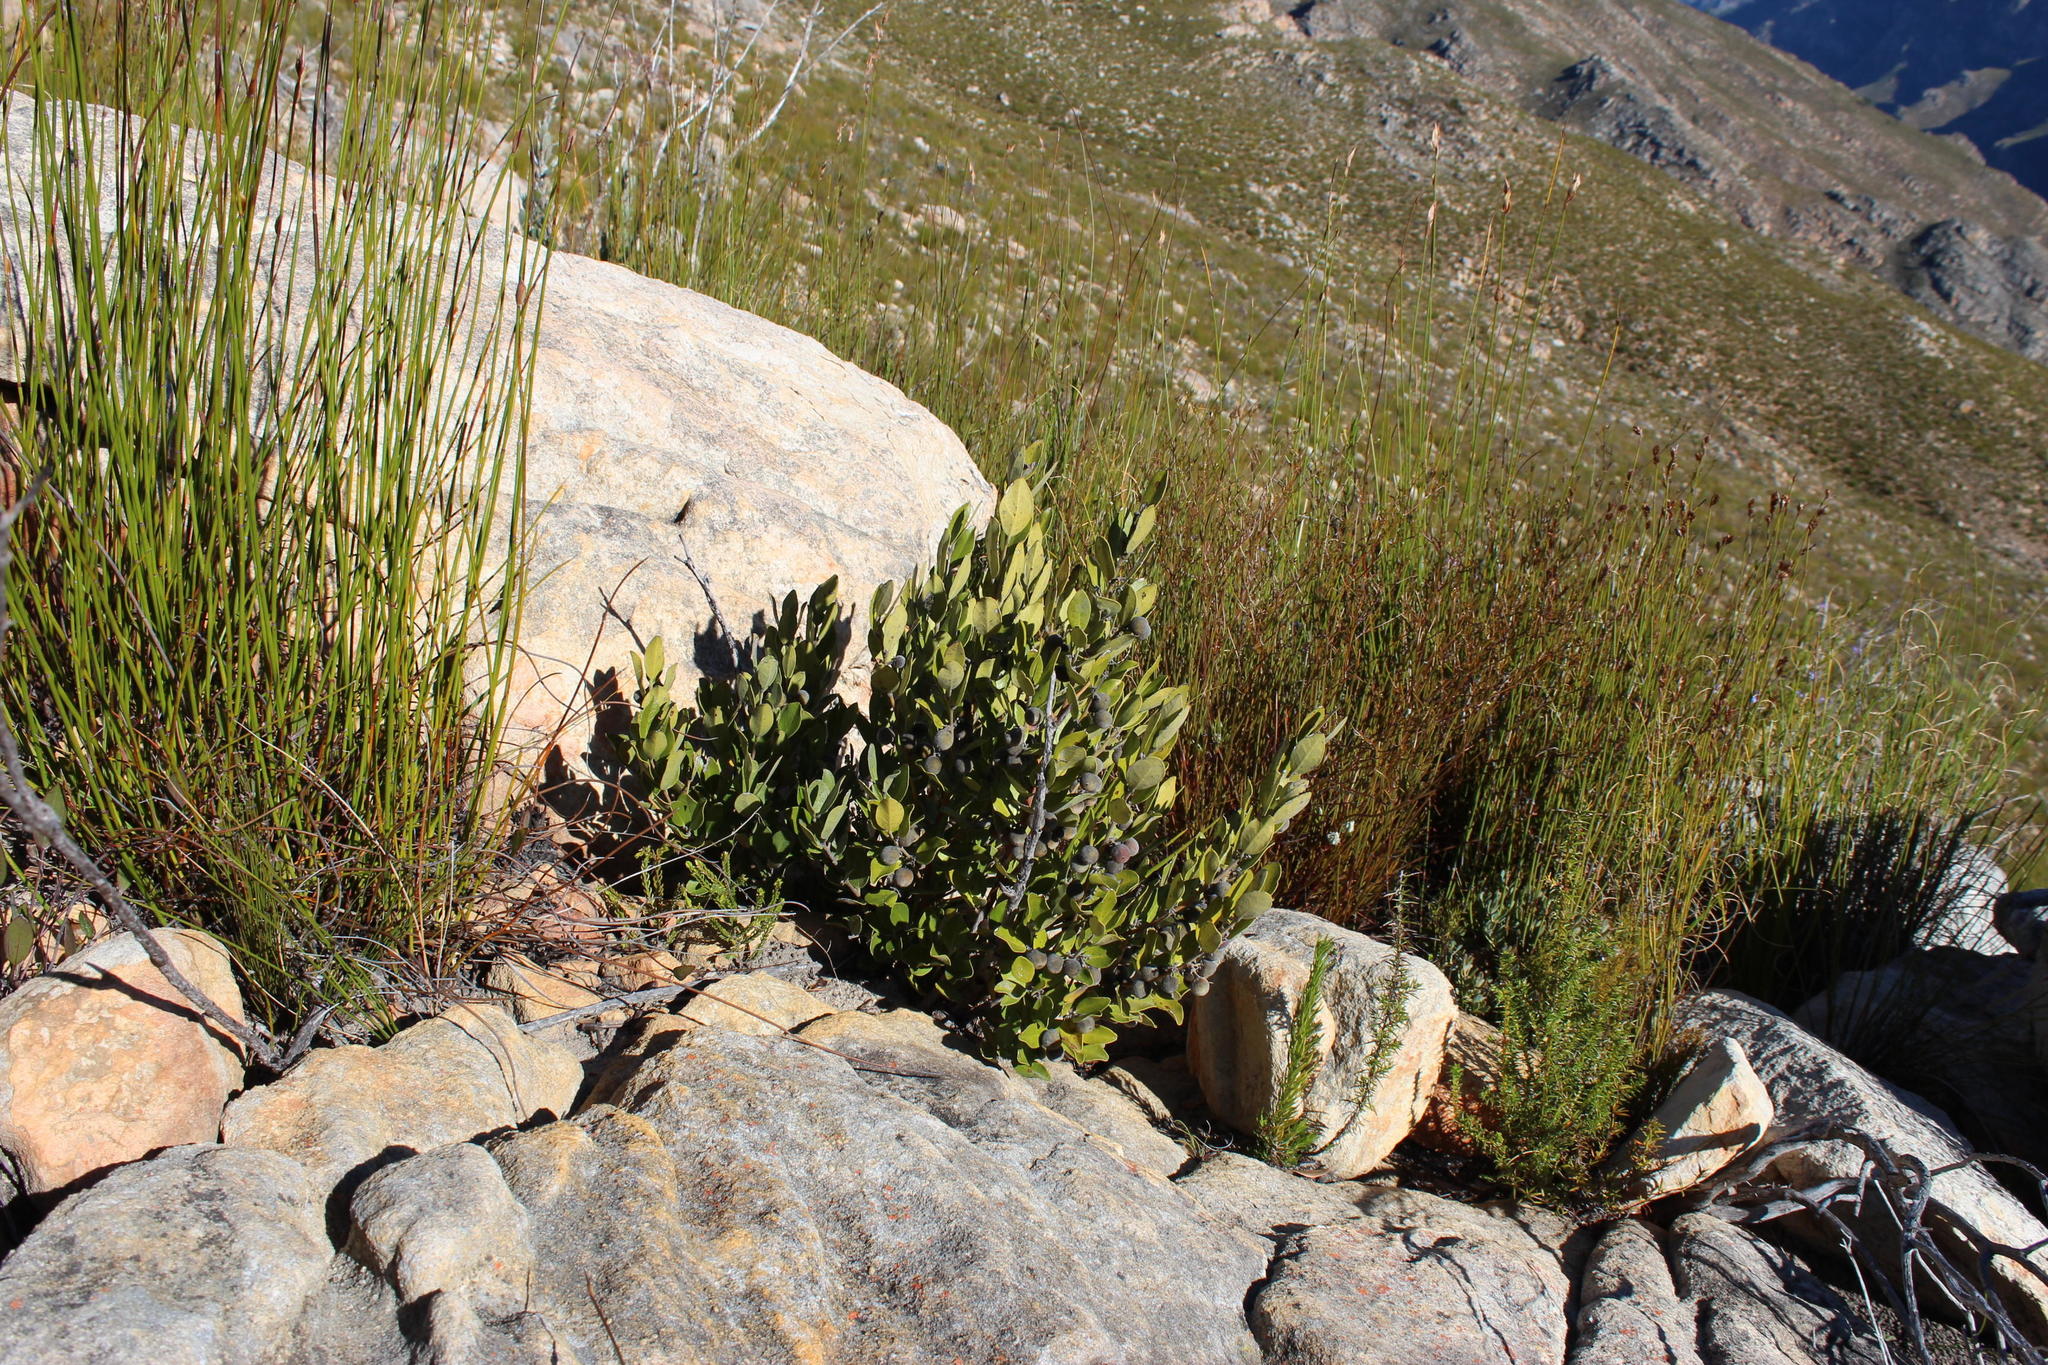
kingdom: Plantae
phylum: Tracheophyta
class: Magnoliopsida
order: Ericales
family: Ebenaceae
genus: Euclea
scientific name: Euclea polyandra
